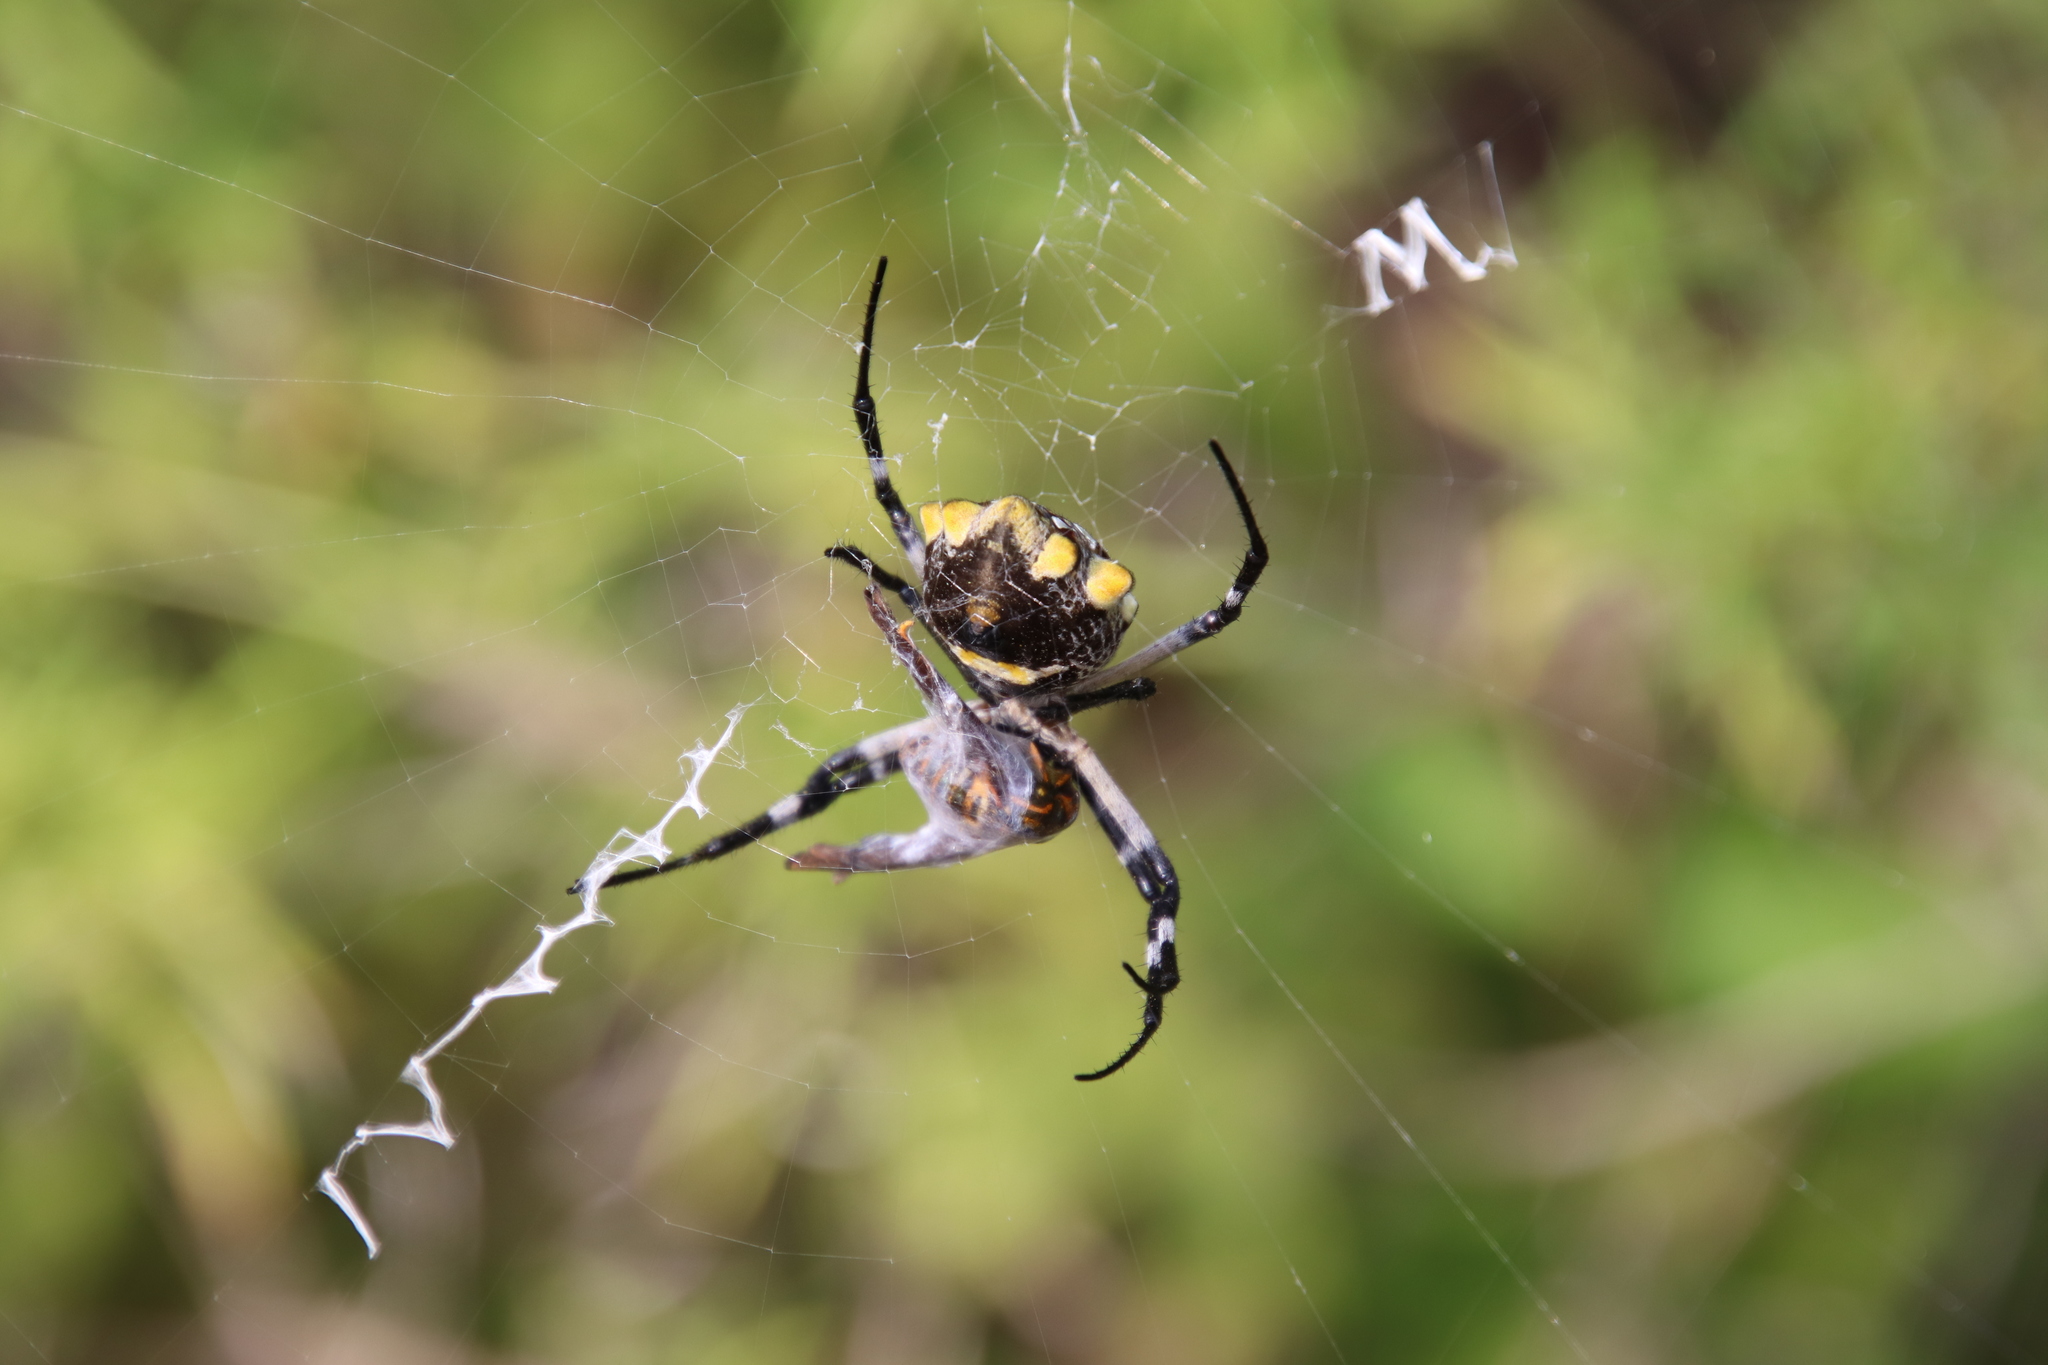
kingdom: Animalia
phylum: Arthropoda
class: Arachnida
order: Araneae
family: Araneidae
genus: Argiope
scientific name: Argiope argentata
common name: Orb weavers
